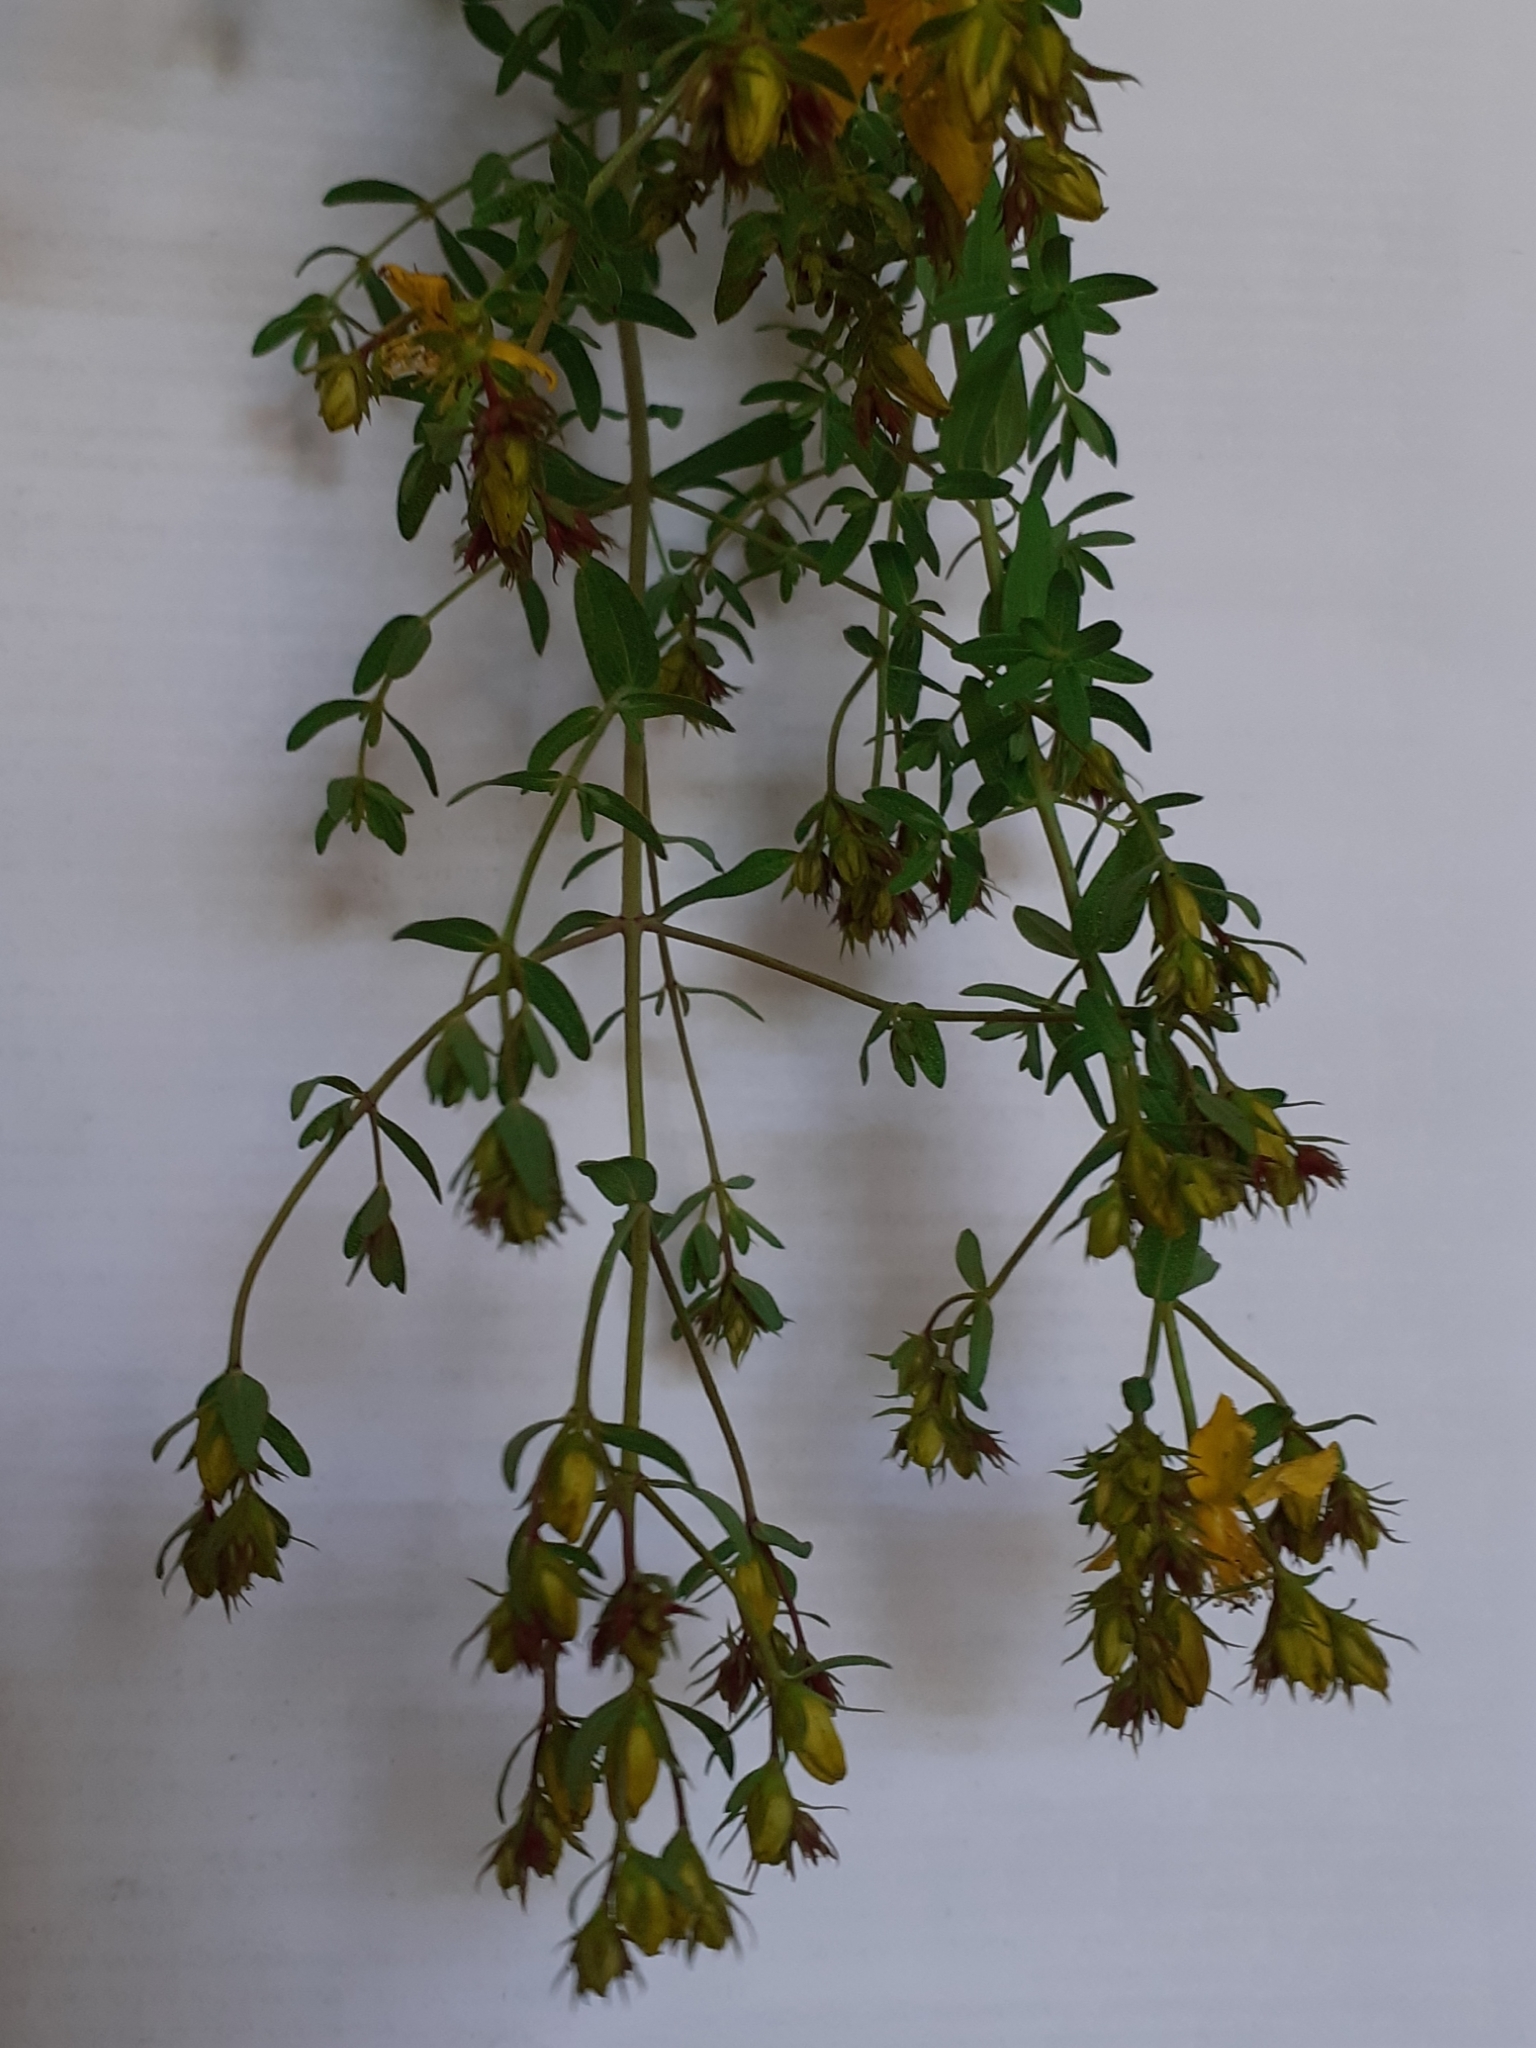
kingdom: Plantae
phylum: Tracheophyta
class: Magnoliopsida
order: Malpighiales
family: Hypericaceae
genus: Hypericum
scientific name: Hypericum perforatum
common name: Common st. johnswort
